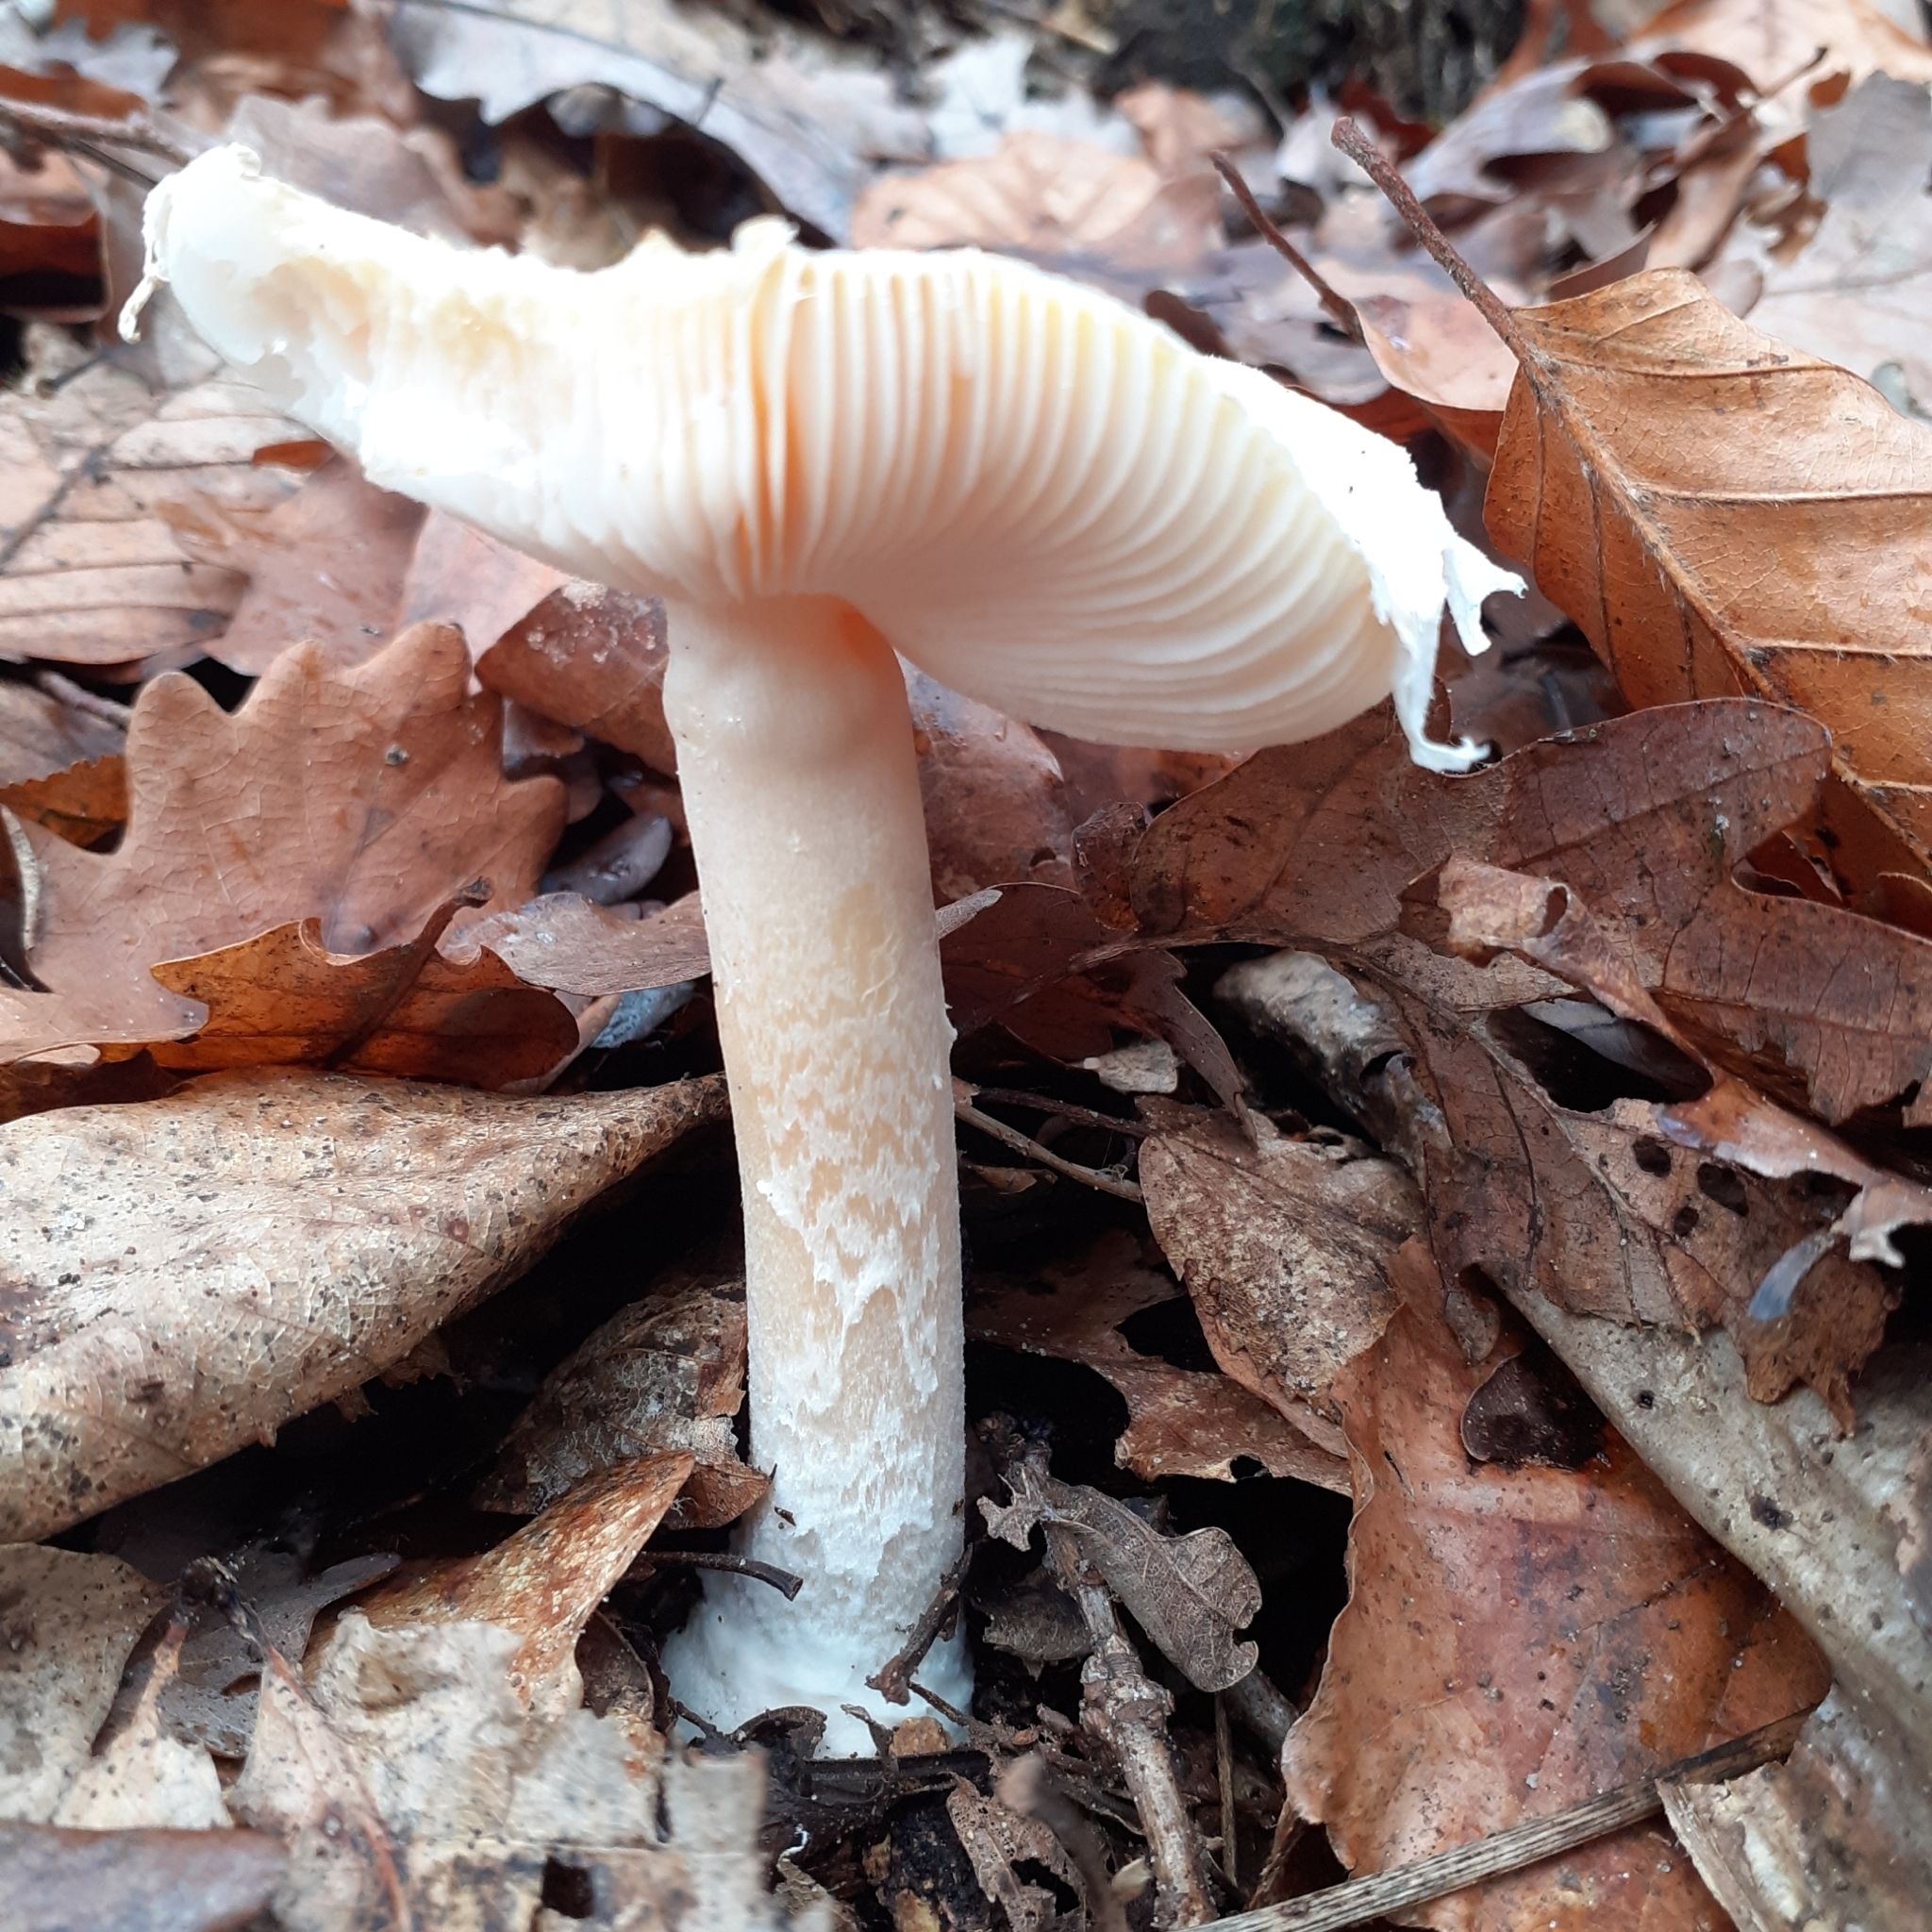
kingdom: Fungi
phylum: Basidiomycota
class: Agaricomycetes
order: Agaricales
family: Amanitaceae
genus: Amanita
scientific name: Amanita gemmata
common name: Jewelled amanita
